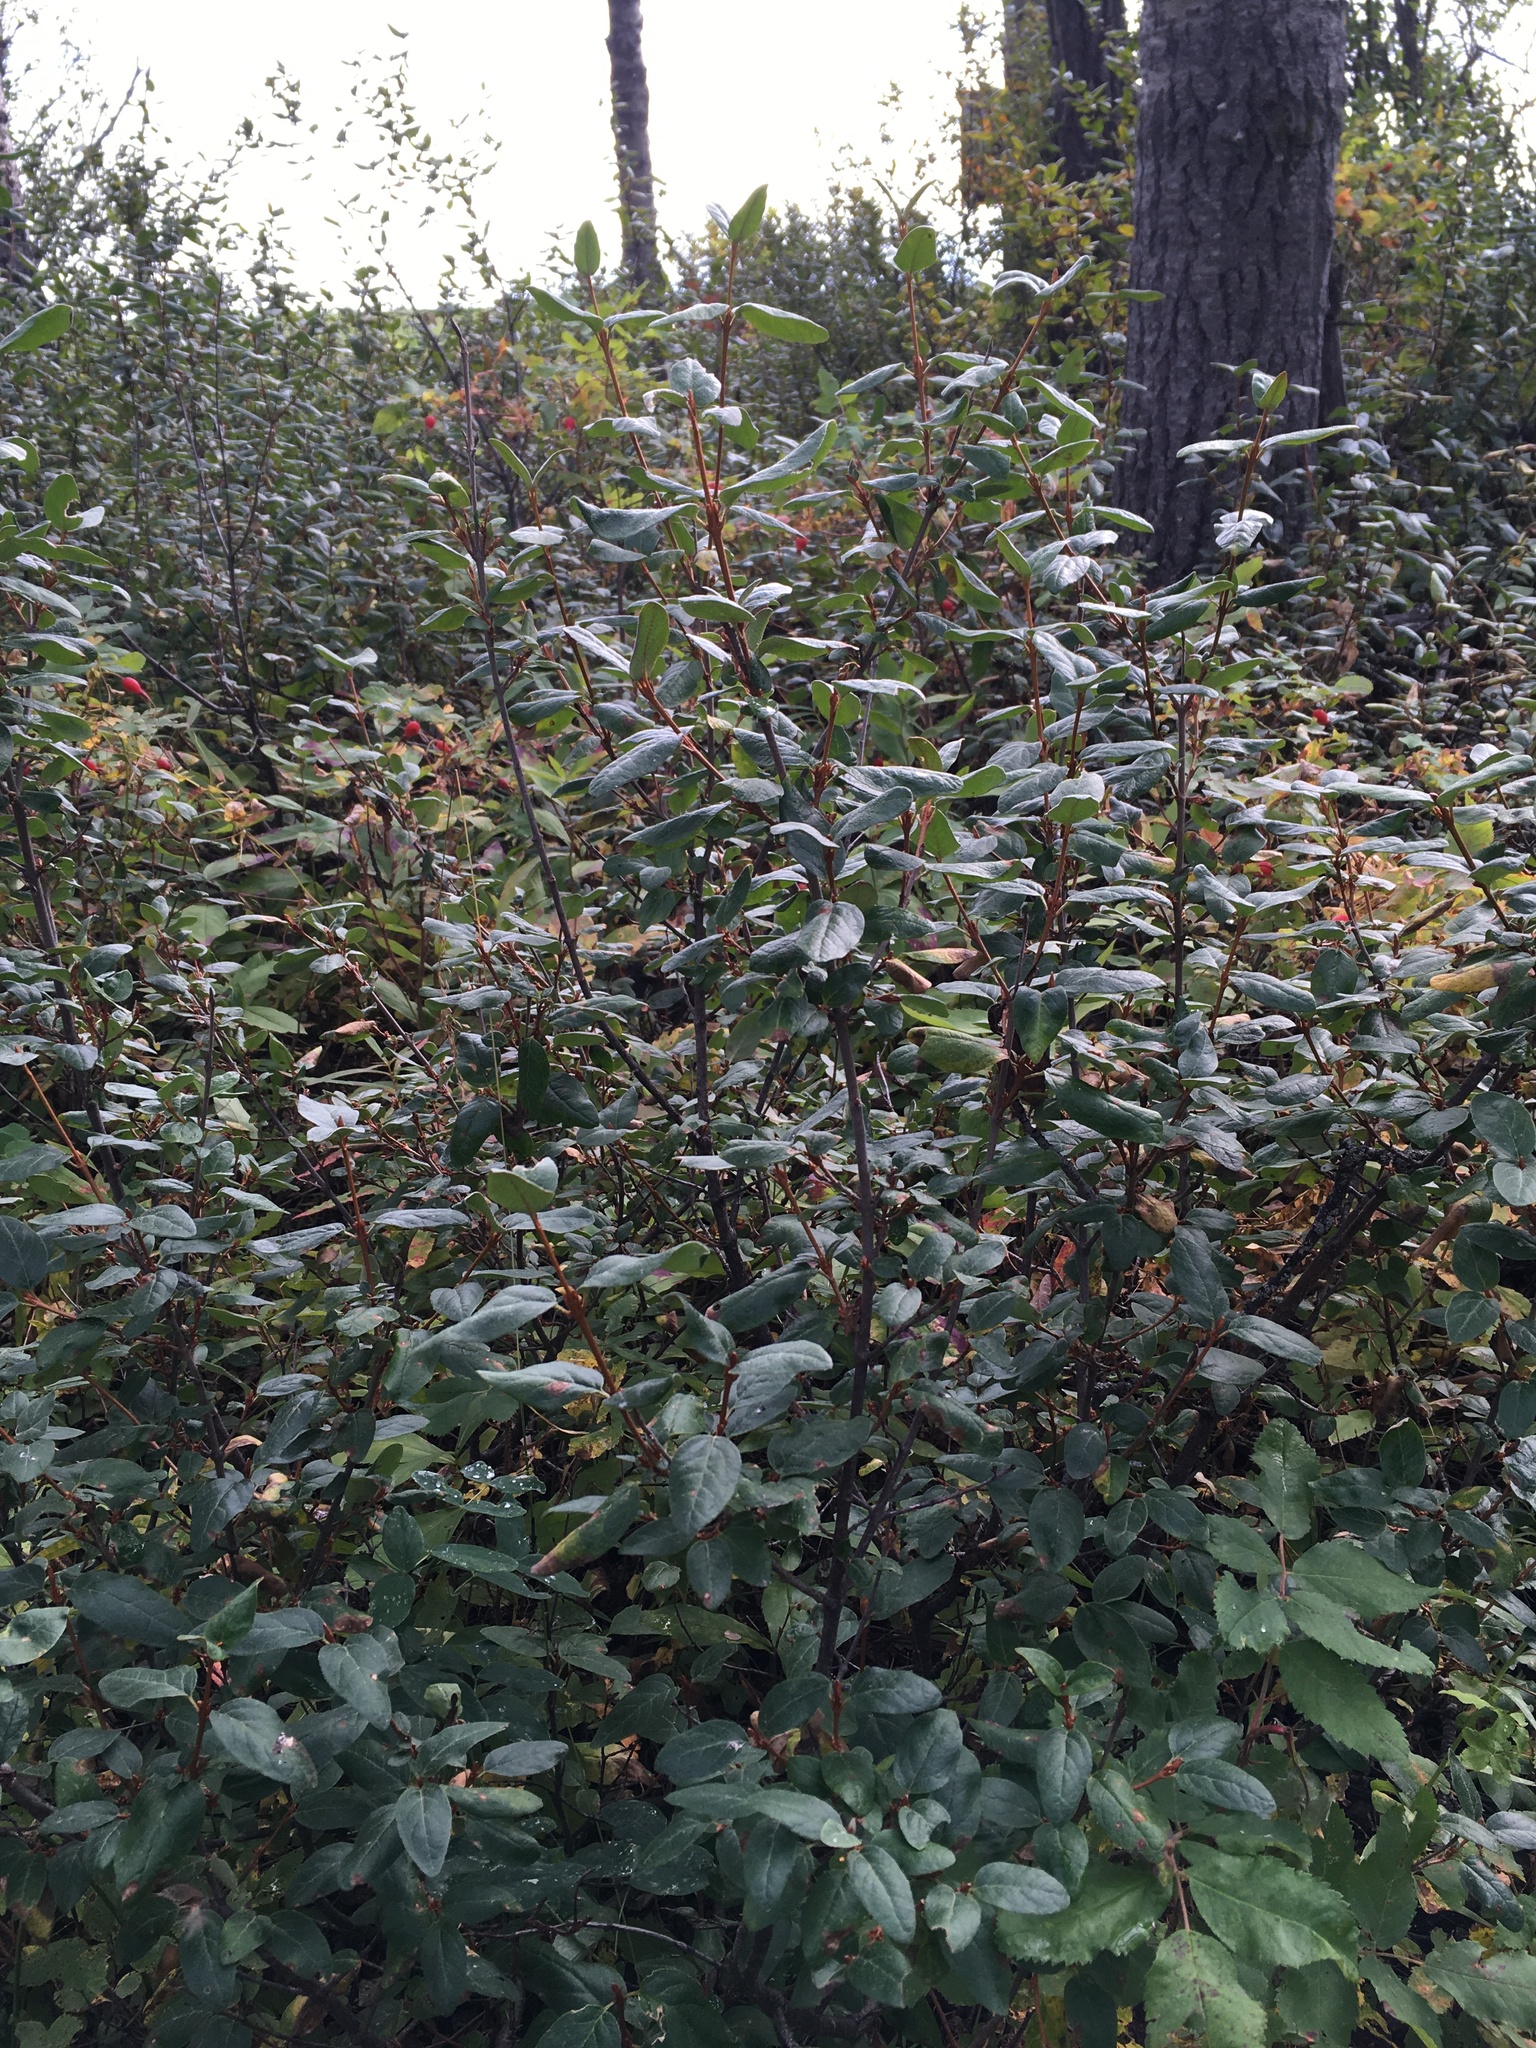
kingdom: Plantae
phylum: Tracheophyta
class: Magnoliopsida
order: Rosales
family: Elaeagnaceae
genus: Shepherdia
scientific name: Shepherdia canadensis
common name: Soapberry
